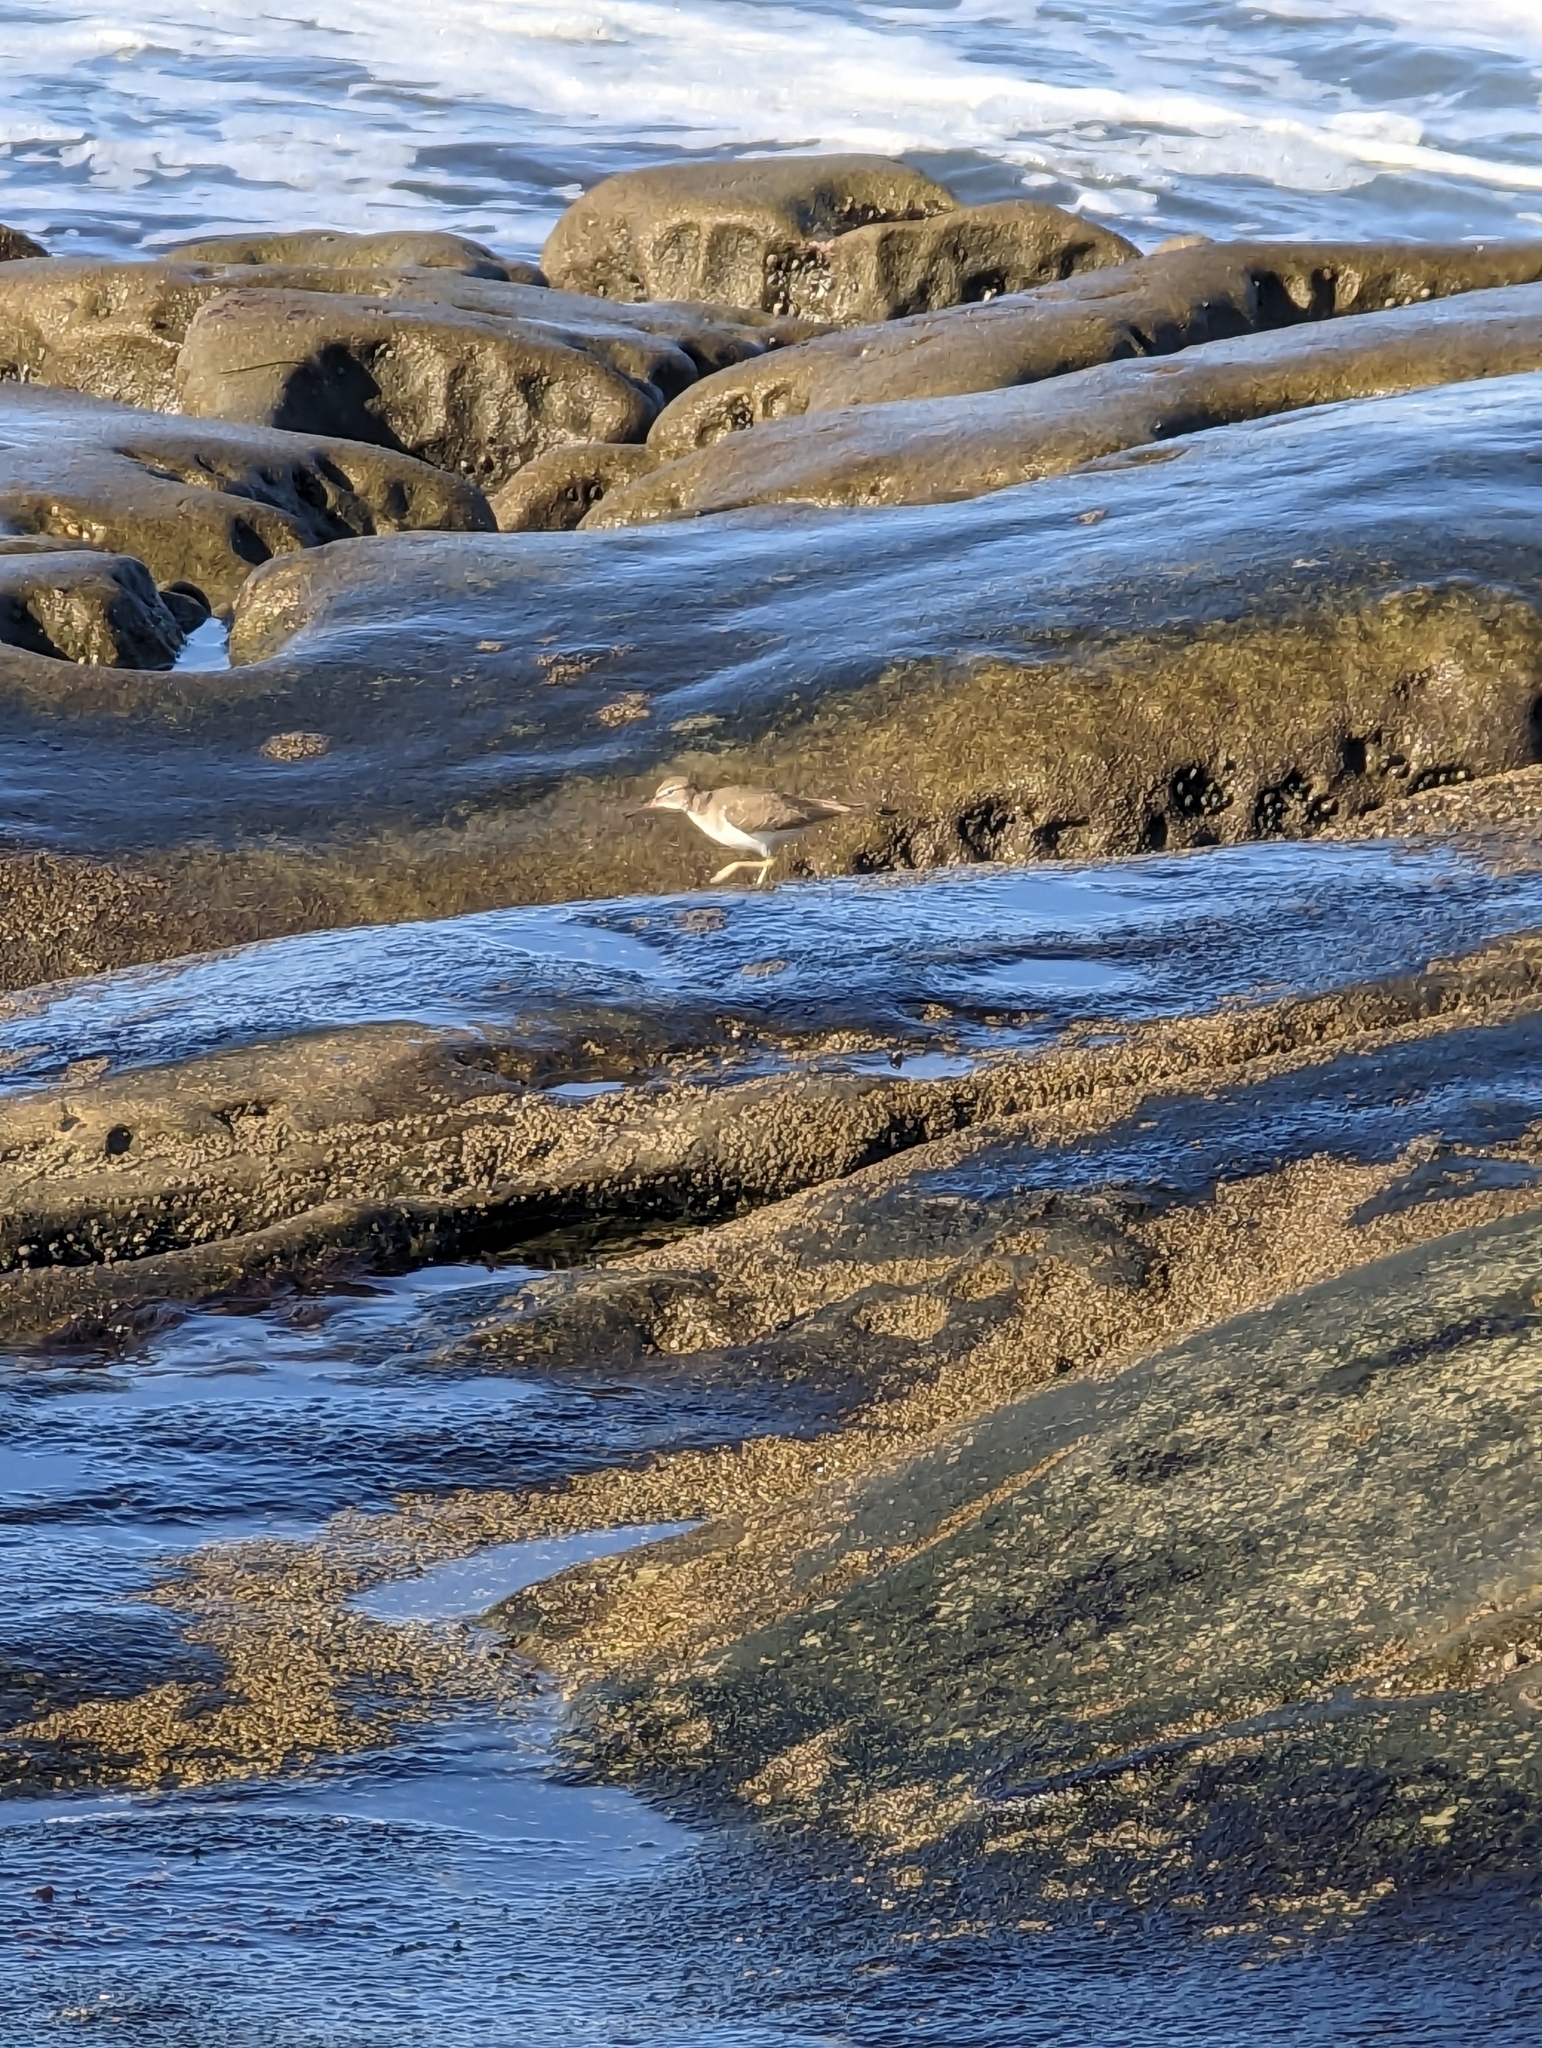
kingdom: Animalia
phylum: Chordata
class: Aves
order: Charadriiformes
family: Scolopacidae
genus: Actitis
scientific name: Actitis macularius
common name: Spotted sandpiper
